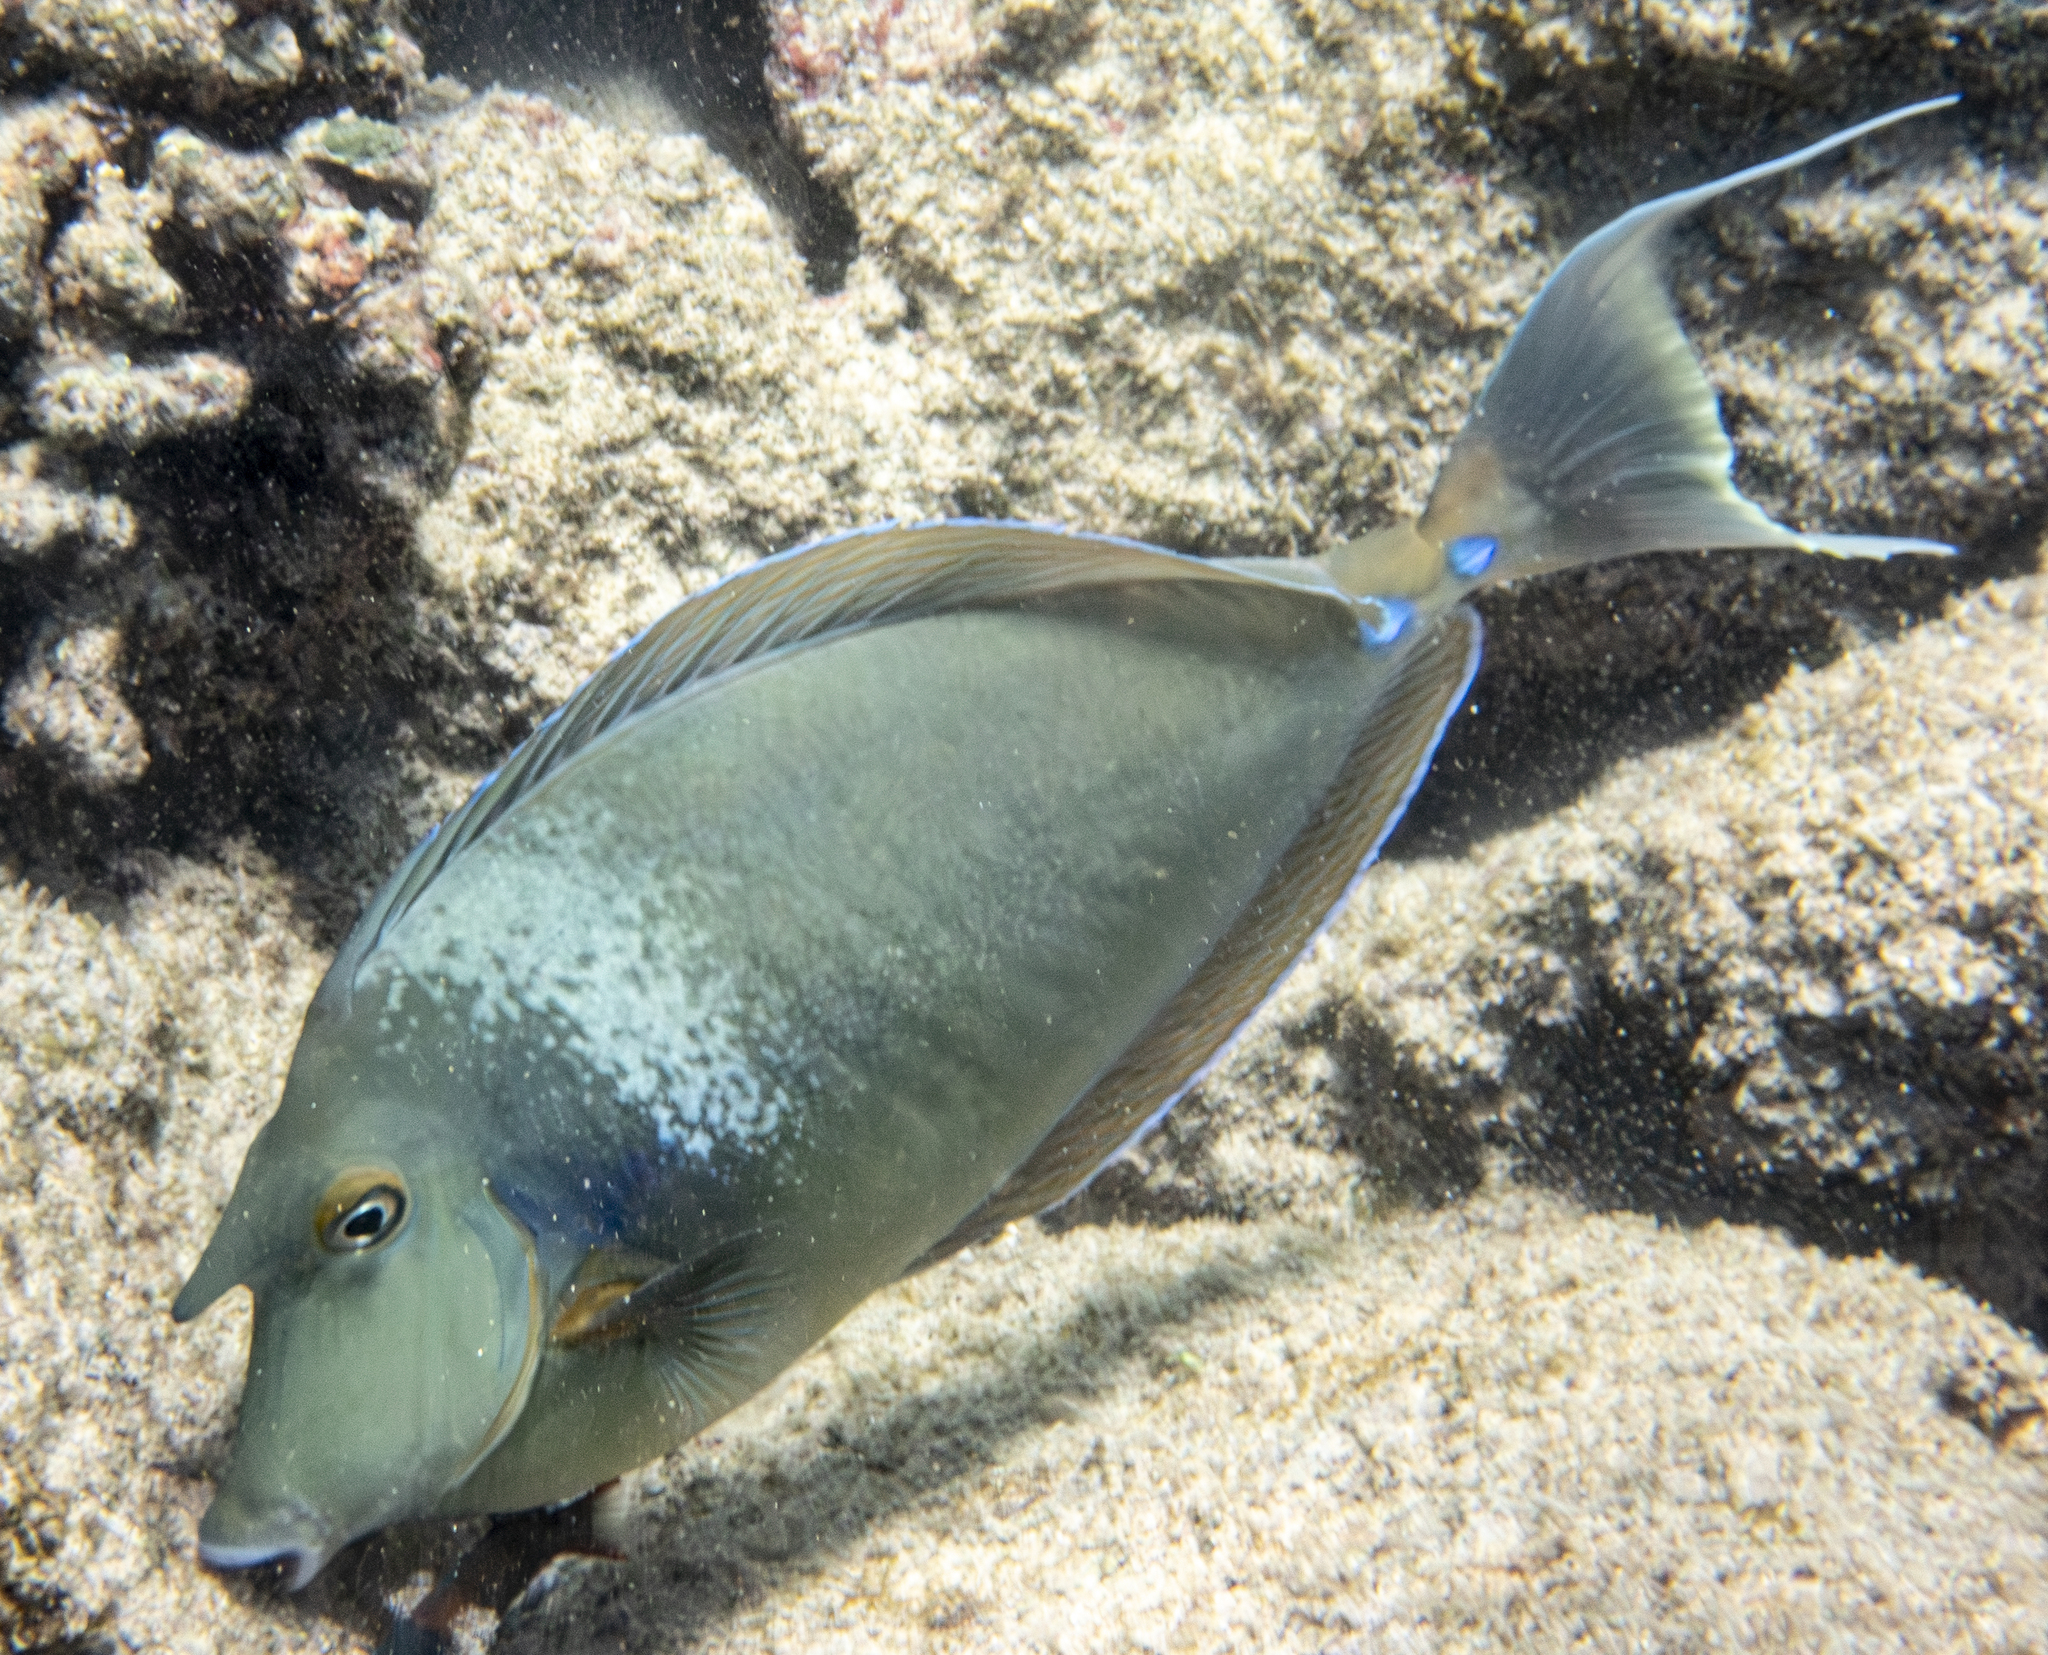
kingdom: Animalia
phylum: Chordata
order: Perciformes
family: Acanthuridae
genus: Naso
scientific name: Naso unicornis
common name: Bluespine unicornfish
